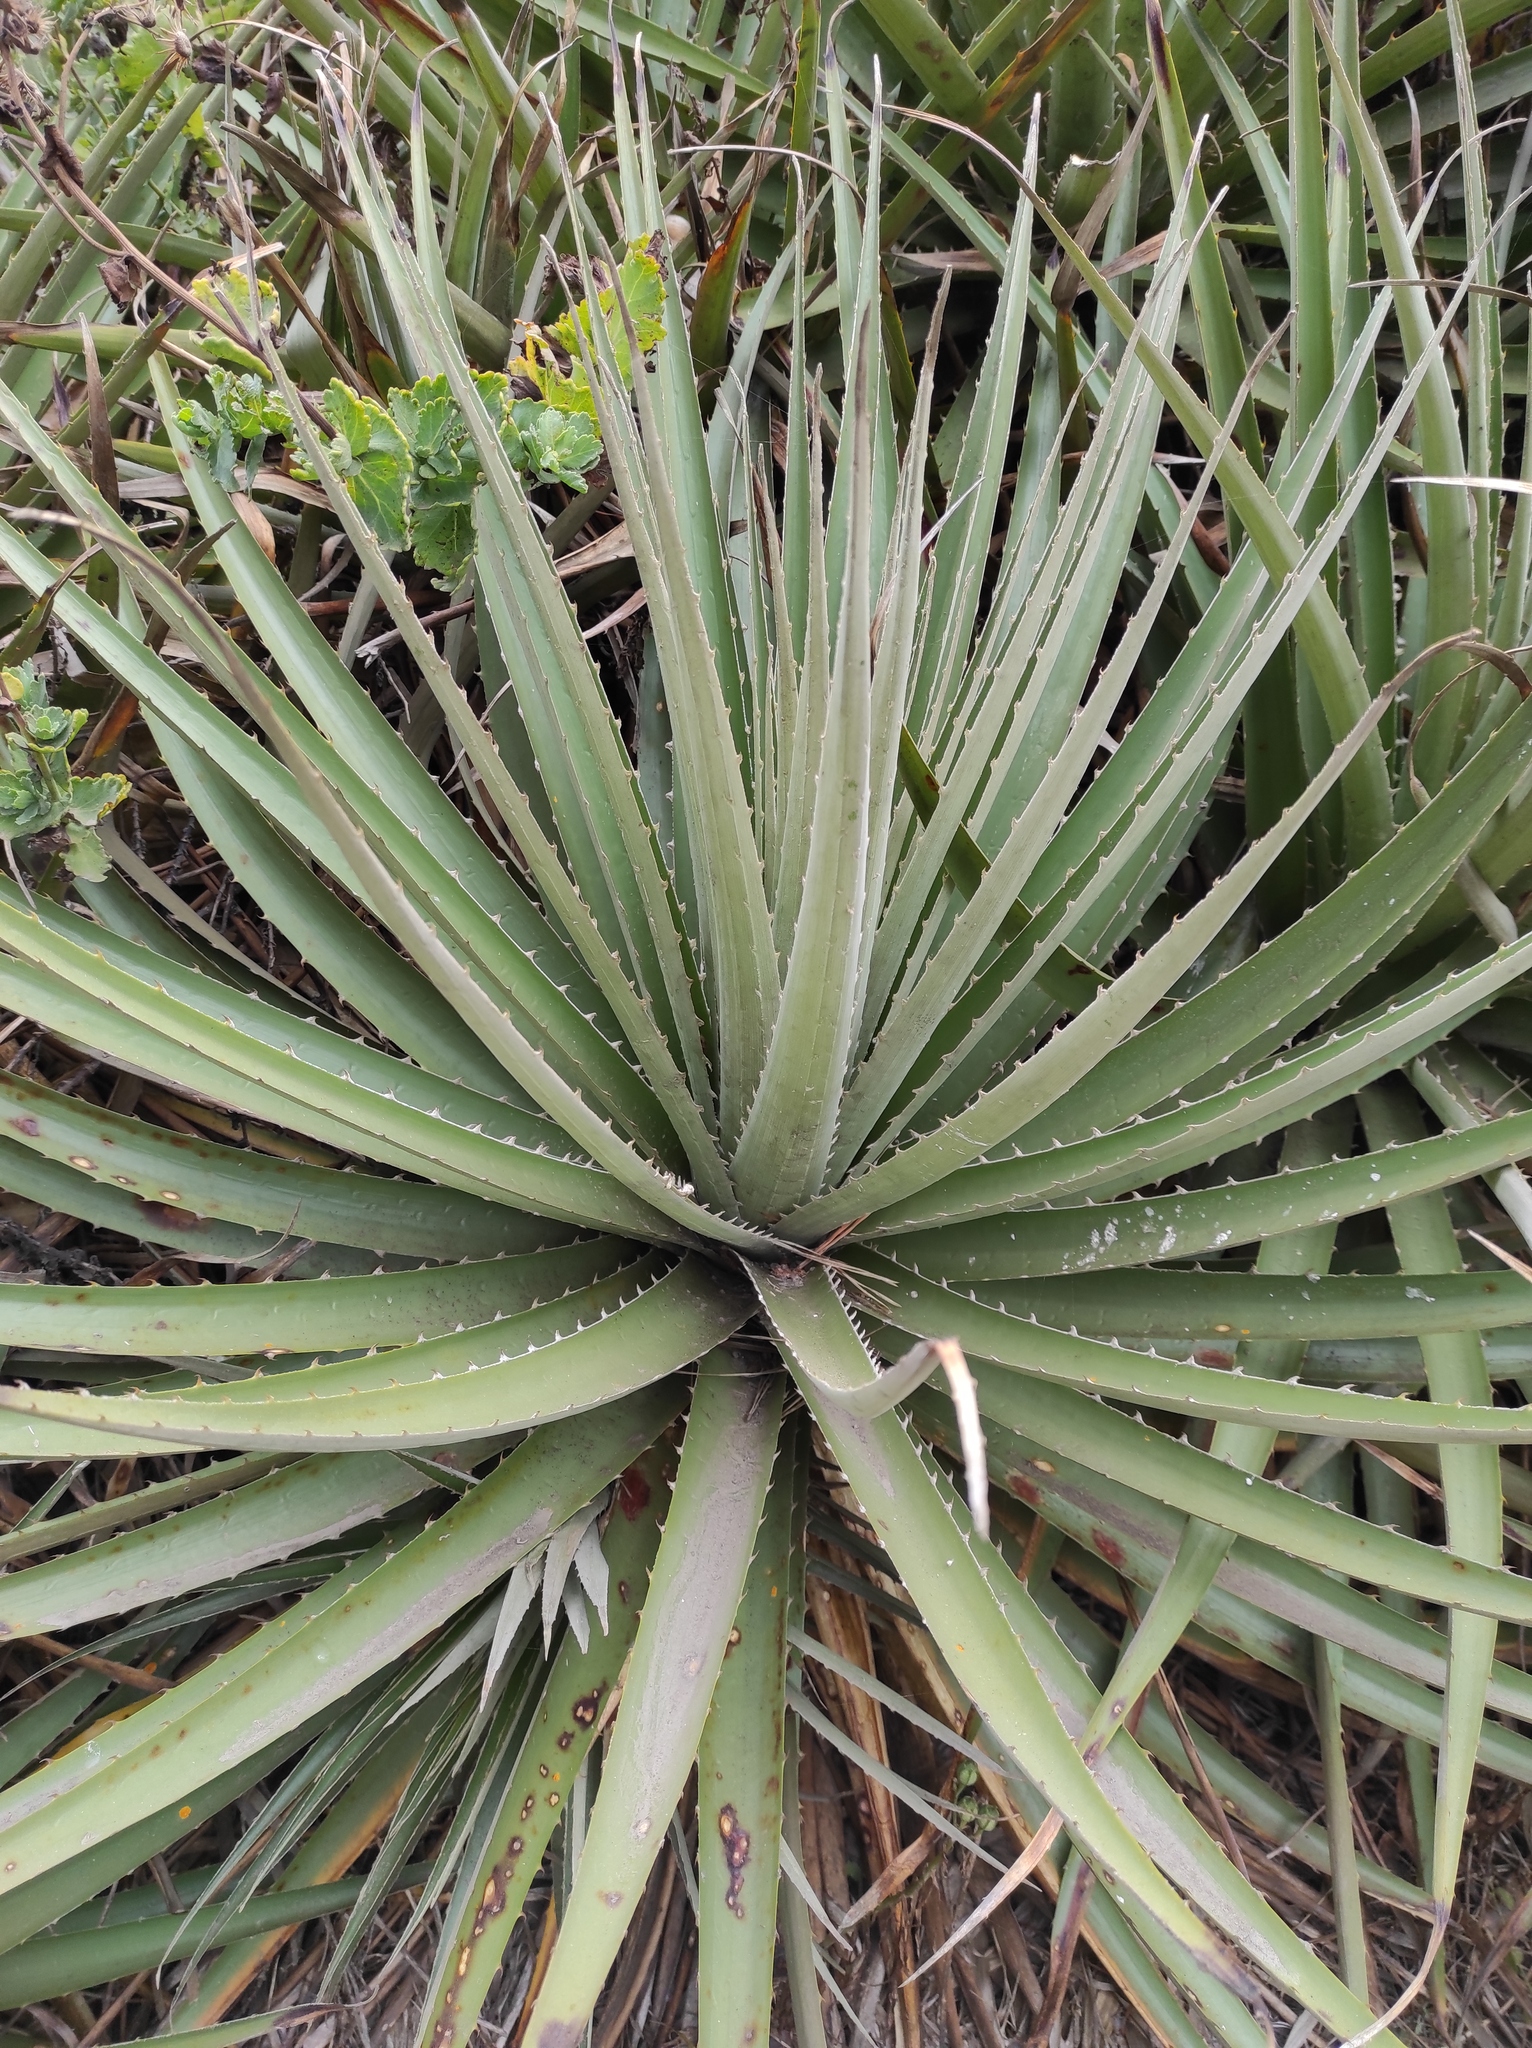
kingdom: Plantae
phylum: Tracheophyta
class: Liliopsida
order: Poales
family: Bromeliaceae
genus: Puya
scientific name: Puya chilensis
